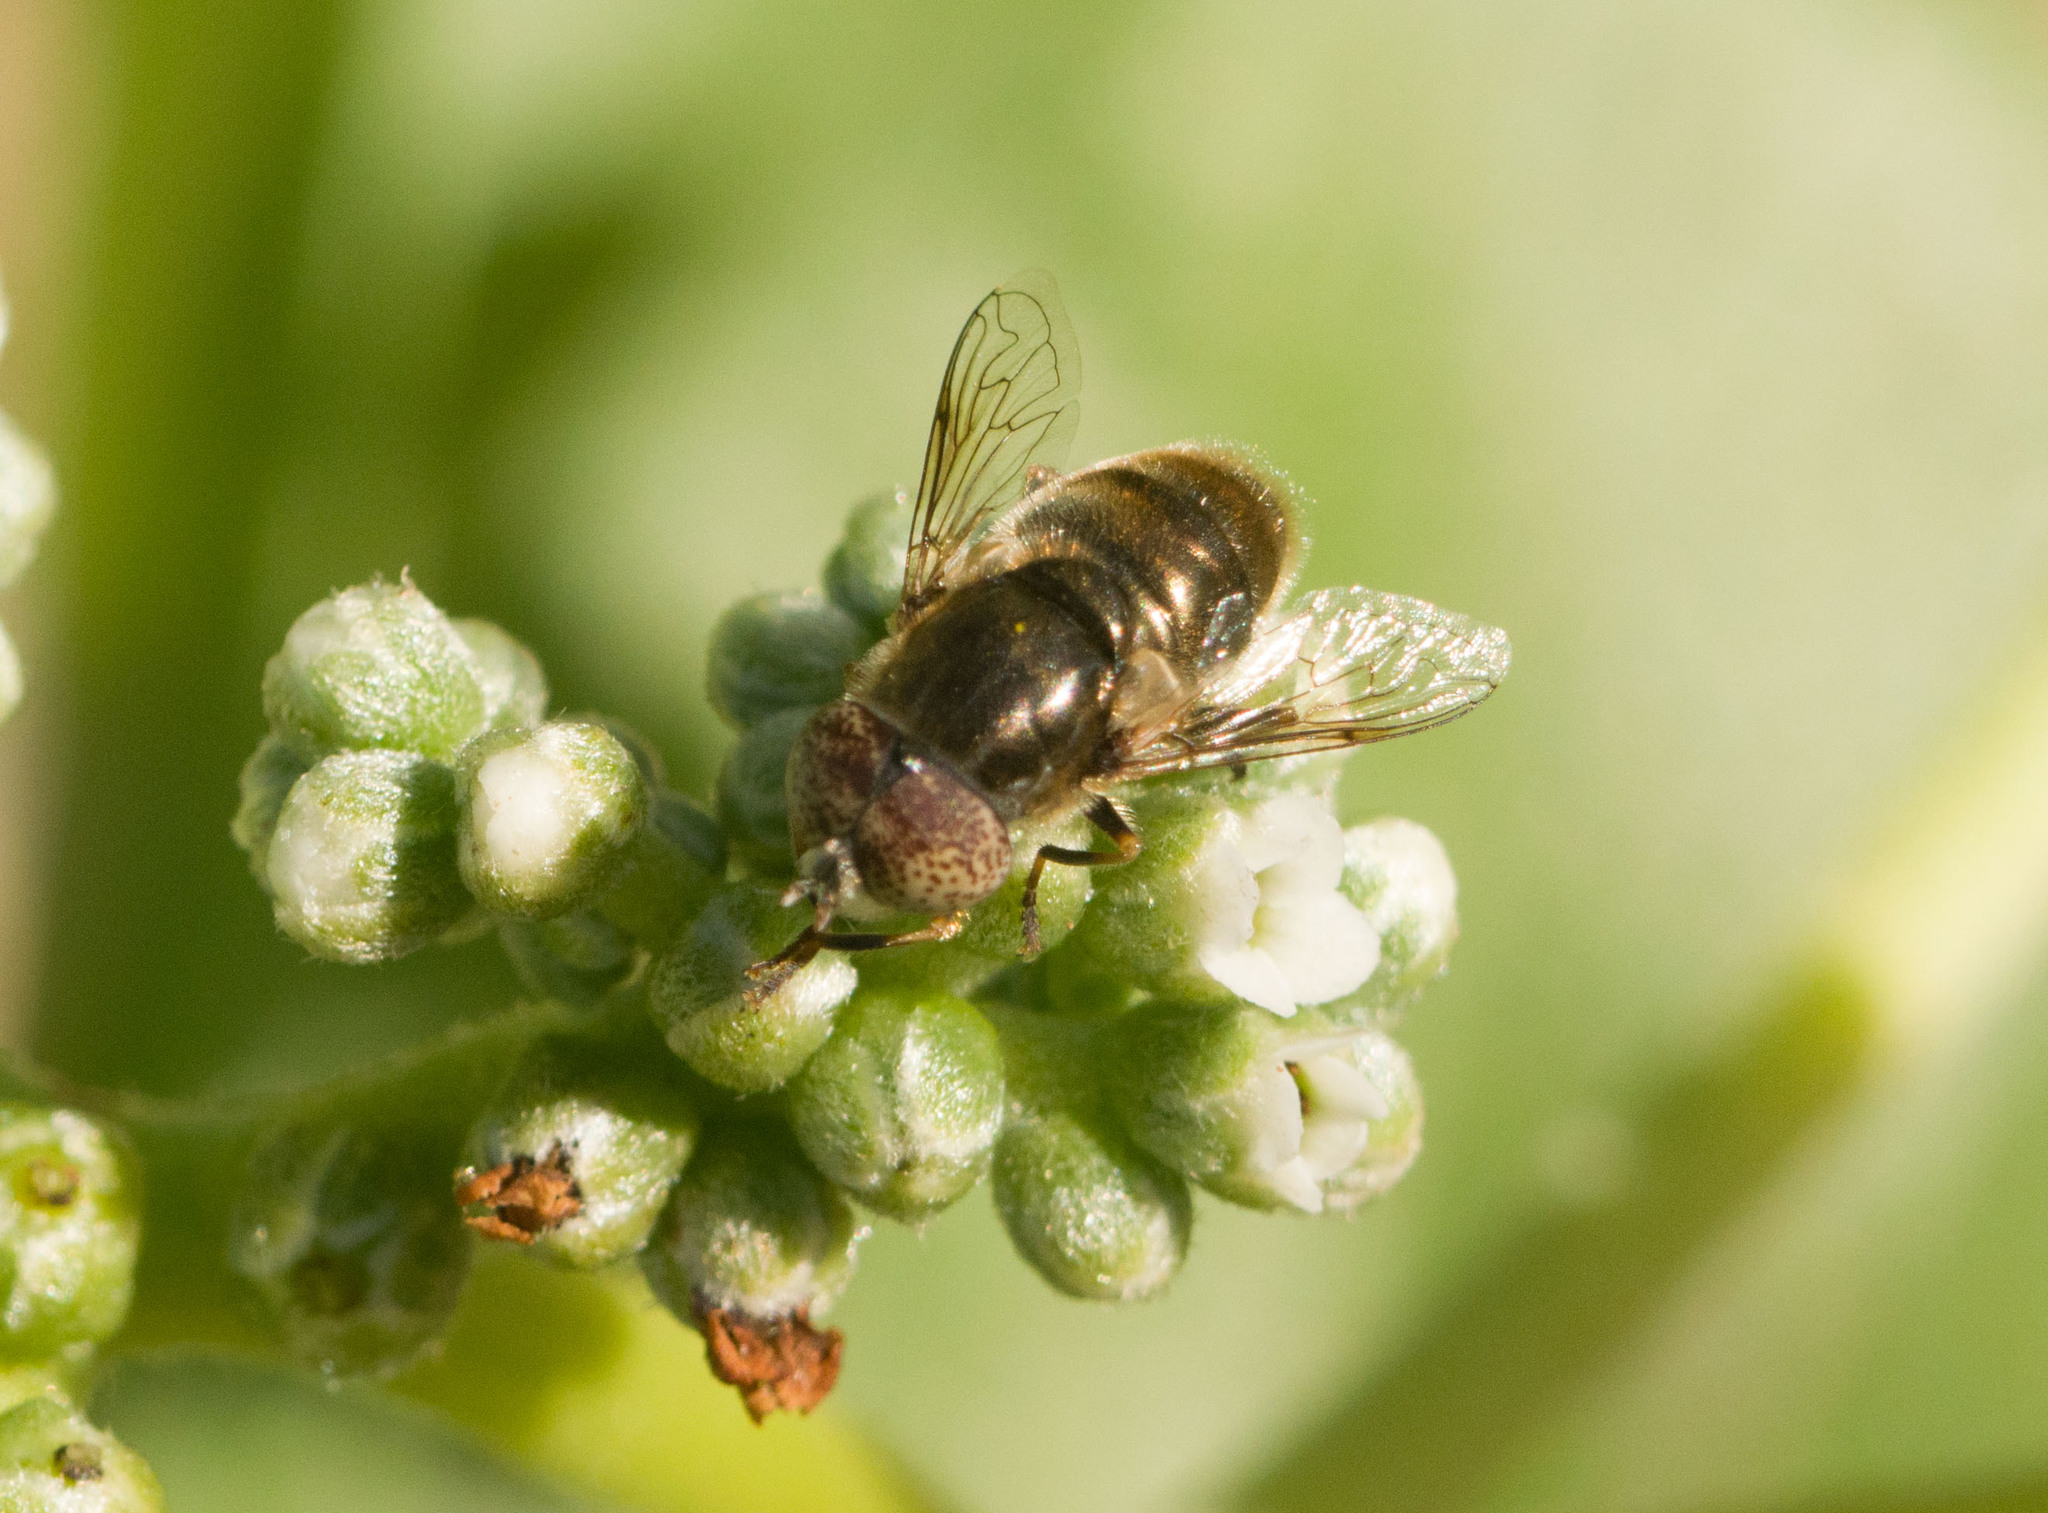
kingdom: Animalia
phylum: Arthropoda
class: Insecta
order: Diptera
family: Syrphidae
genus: Eristalinus
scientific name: Eristalinus aeneus
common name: Syrphid fly
